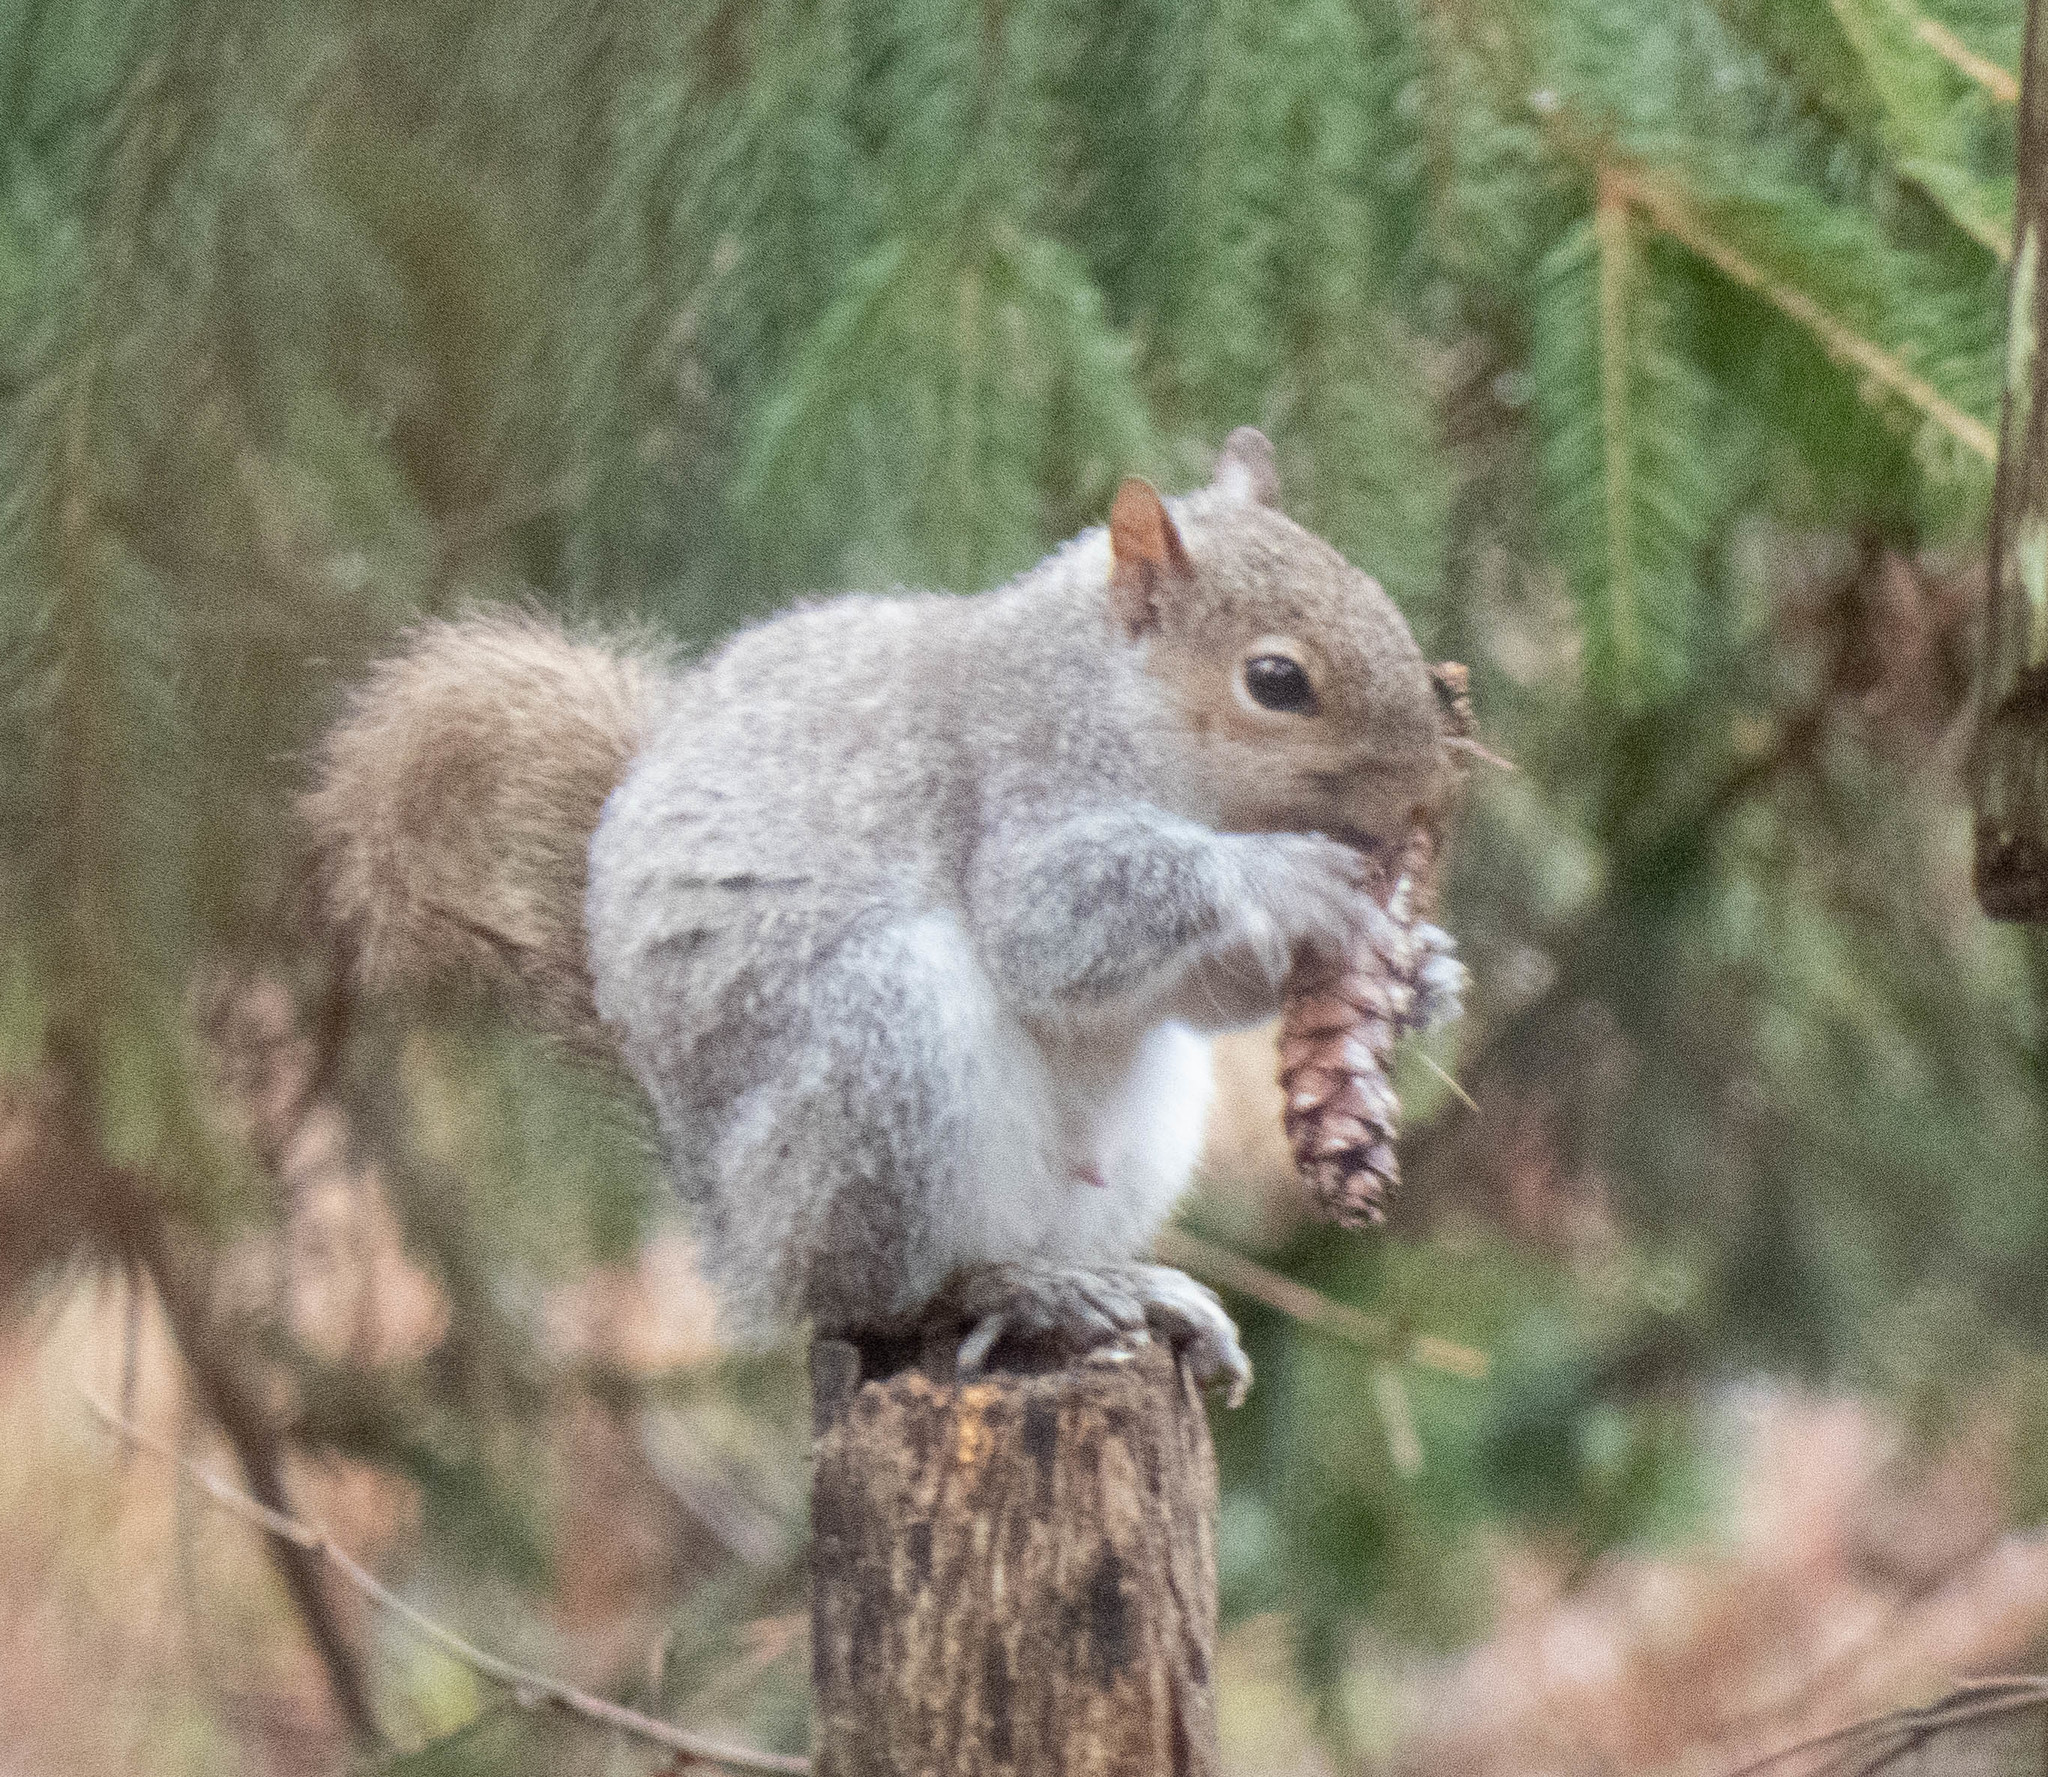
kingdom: Animalia
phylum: Chordata
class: Mammalia
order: Rodentia
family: Sciuridae
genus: Sciurus
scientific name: Sciurus carolinensis
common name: Eastern gray squirrel
